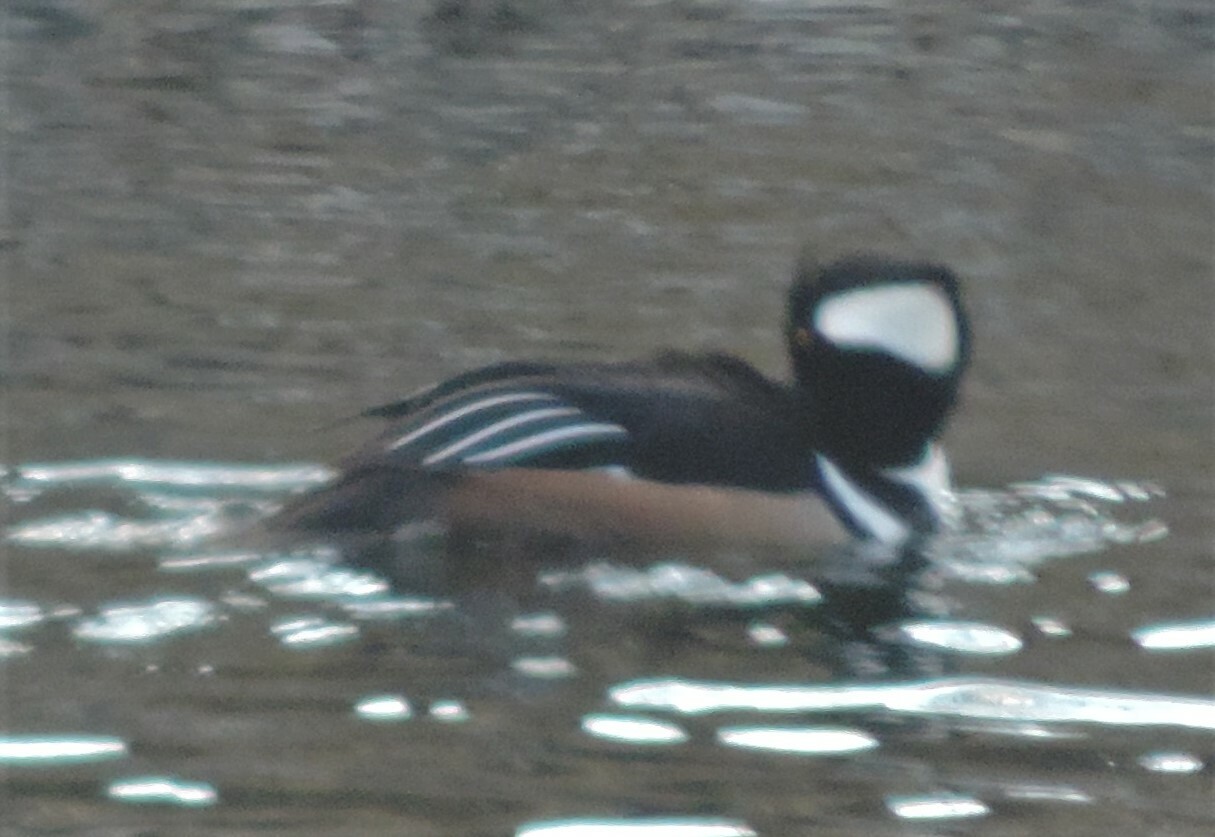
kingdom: Animalia
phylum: Chordata
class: Aves
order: Anseriformes
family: Anatidae
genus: Lophodytes
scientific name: Lophodytes cucullatus
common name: Hooded merganser
